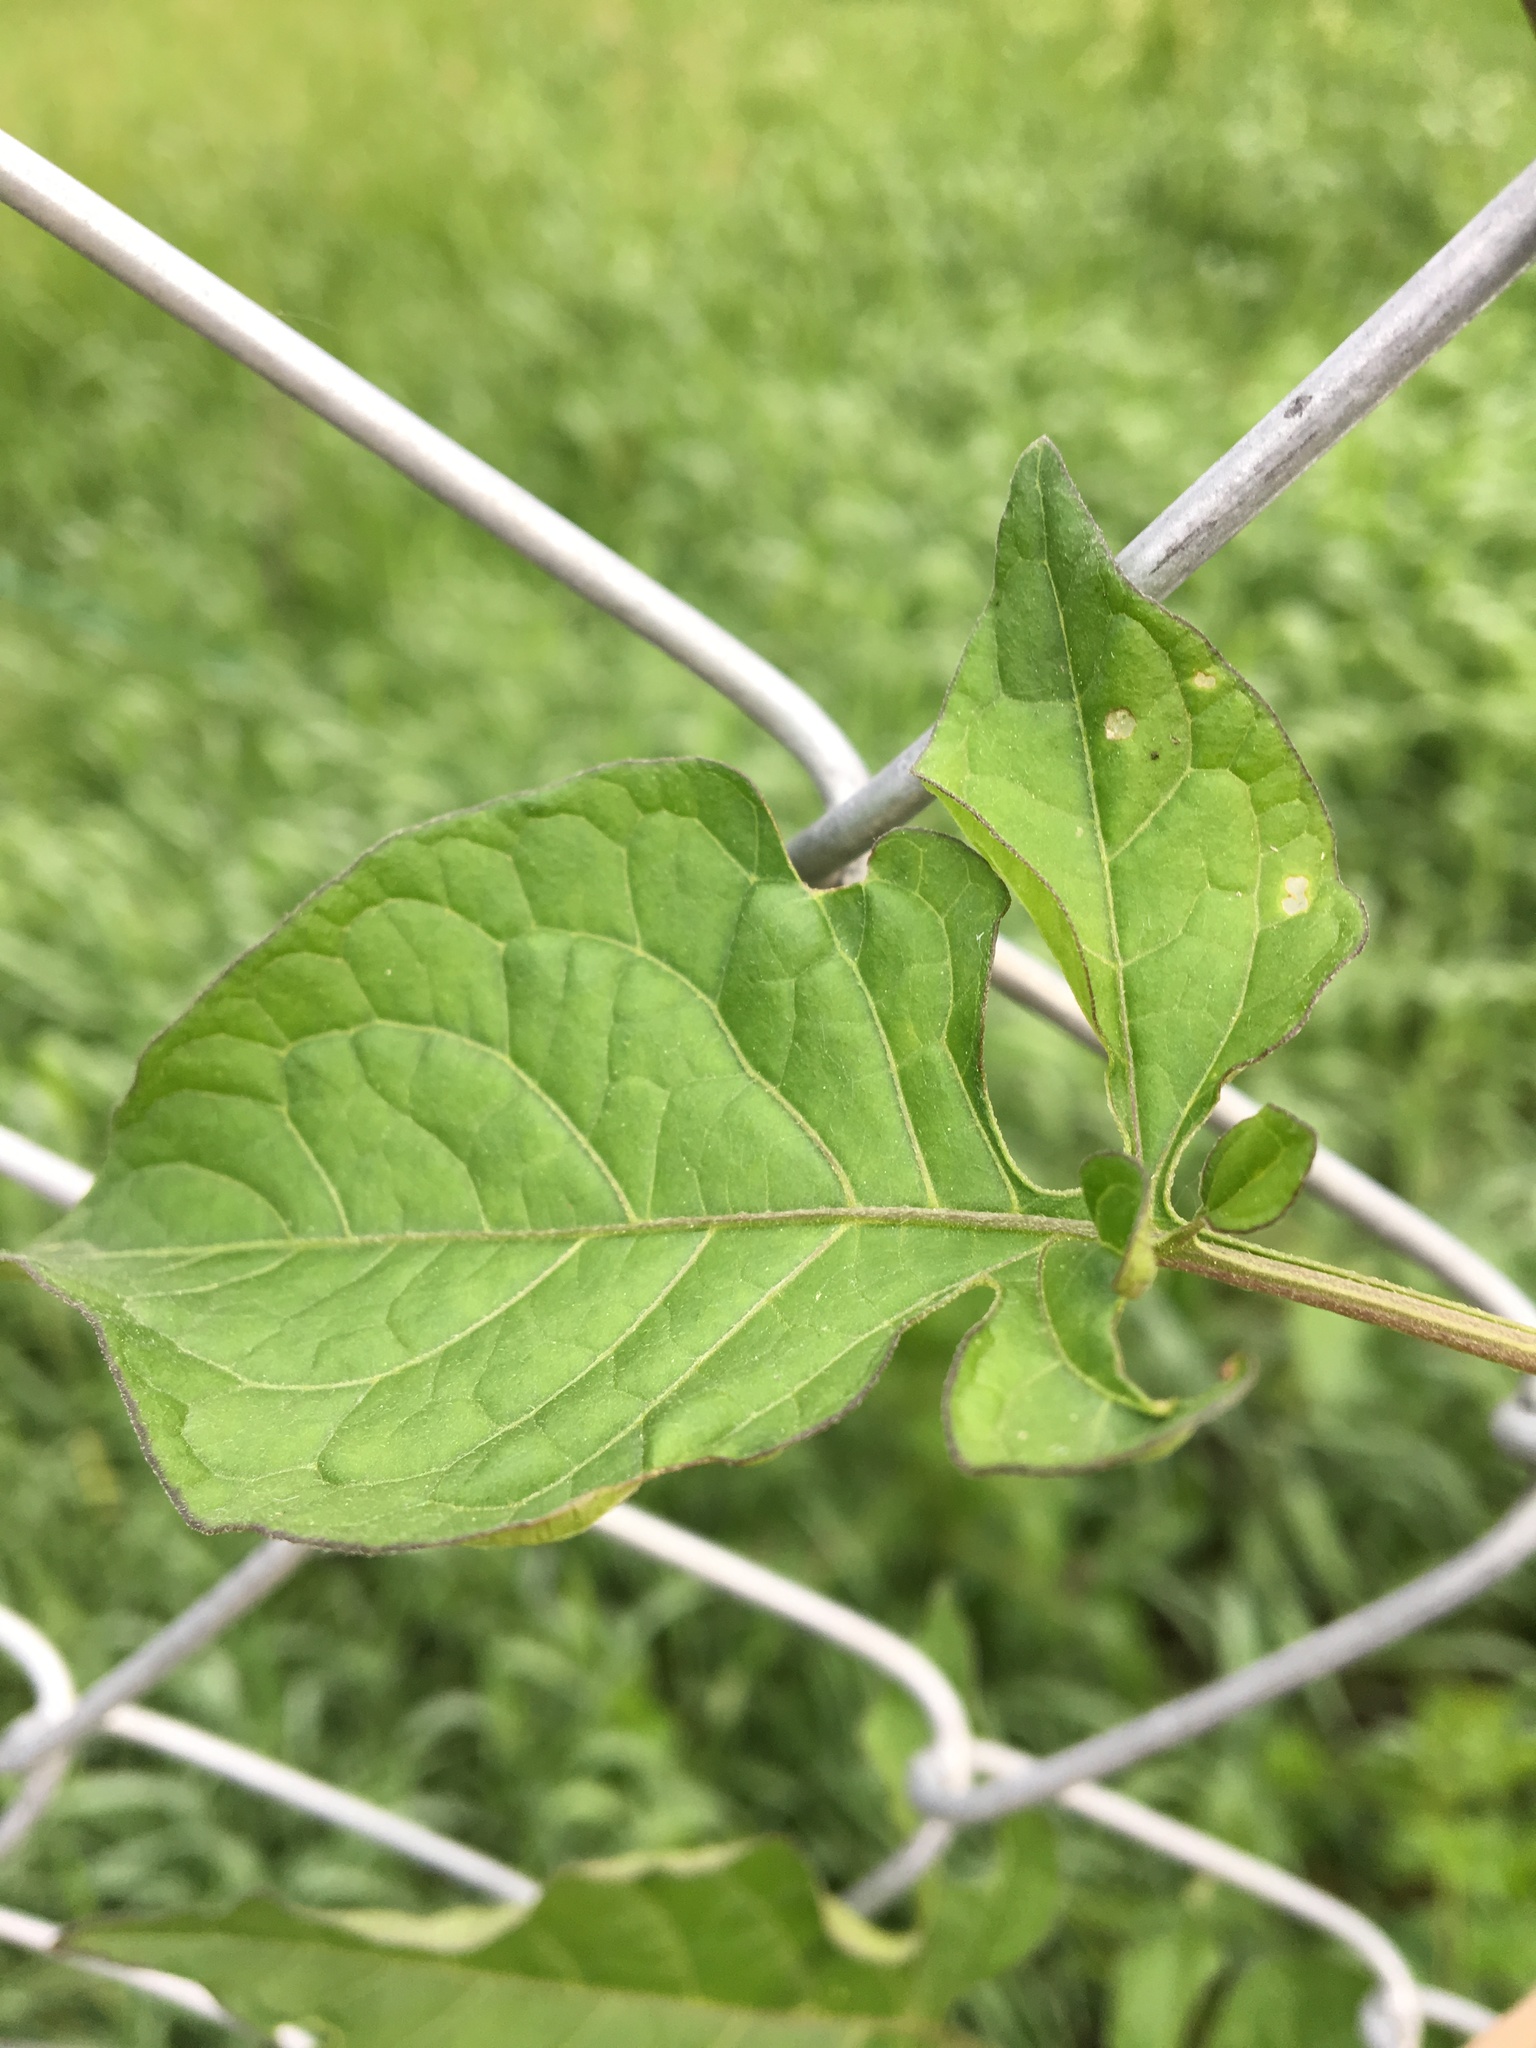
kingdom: Plantae
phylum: Tracheophyta
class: Magnoliopsida
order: Solanales
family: Solanaceae
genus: Solanum
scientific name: Solanum dulcamara
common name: Climbing nightshade
